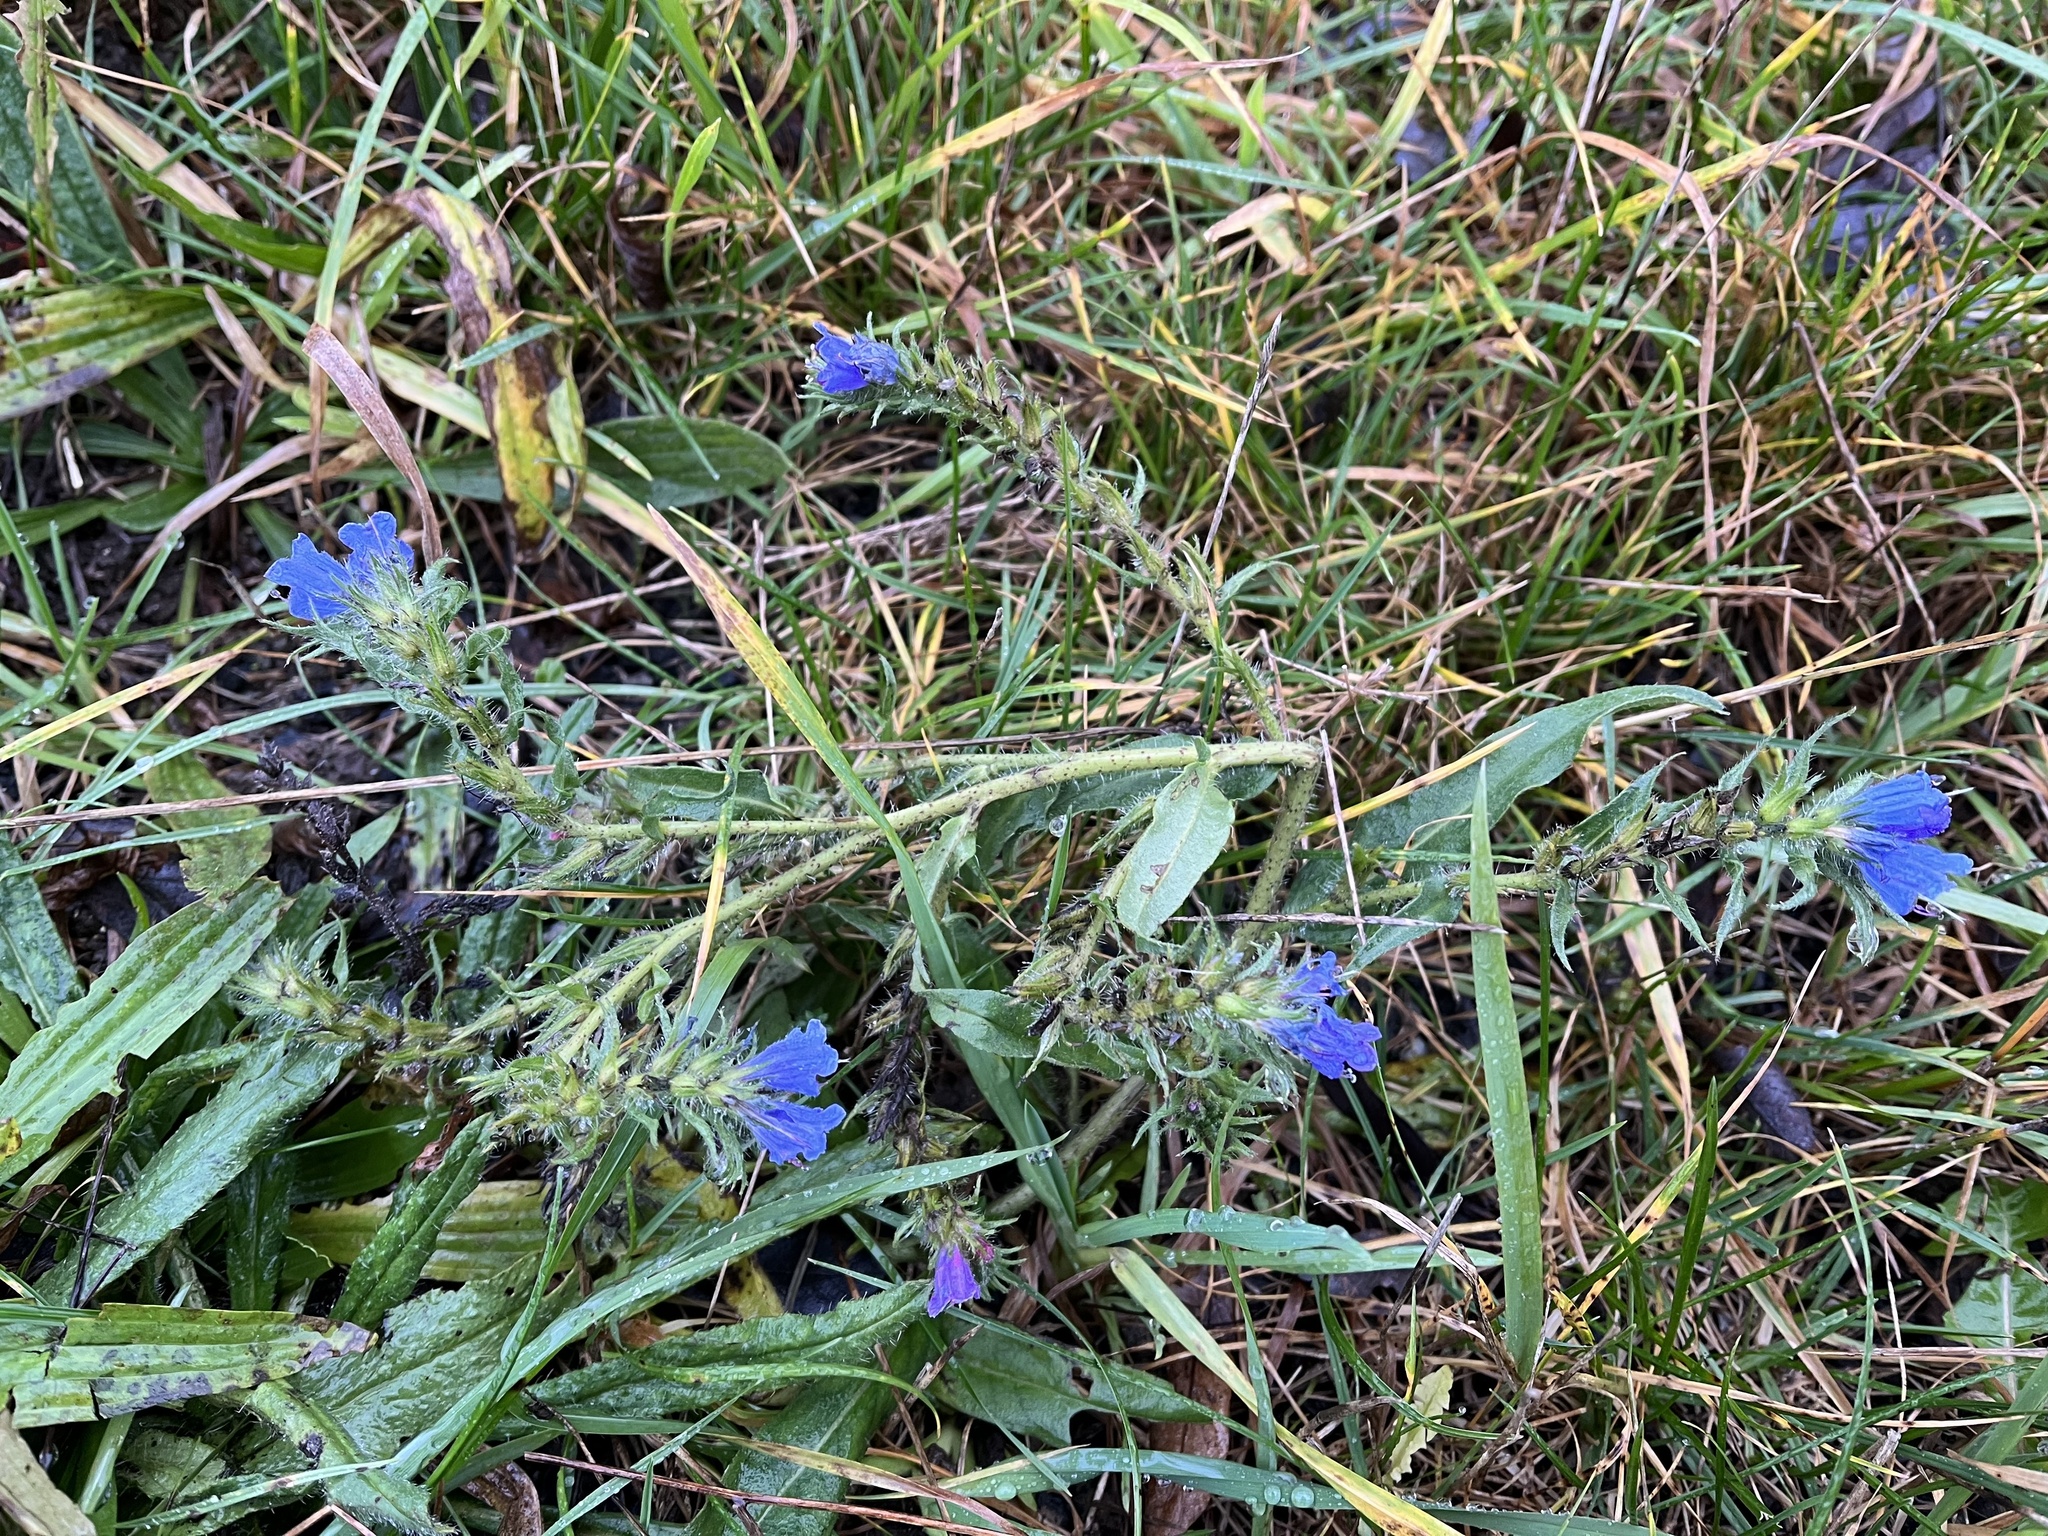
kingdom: Plantae
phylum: Tracheophyta
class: Magnoliopsida
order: Boraginales
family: Boraginaceae
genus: Echium
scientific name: Echium vulgare
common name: Common viper's bugloss
